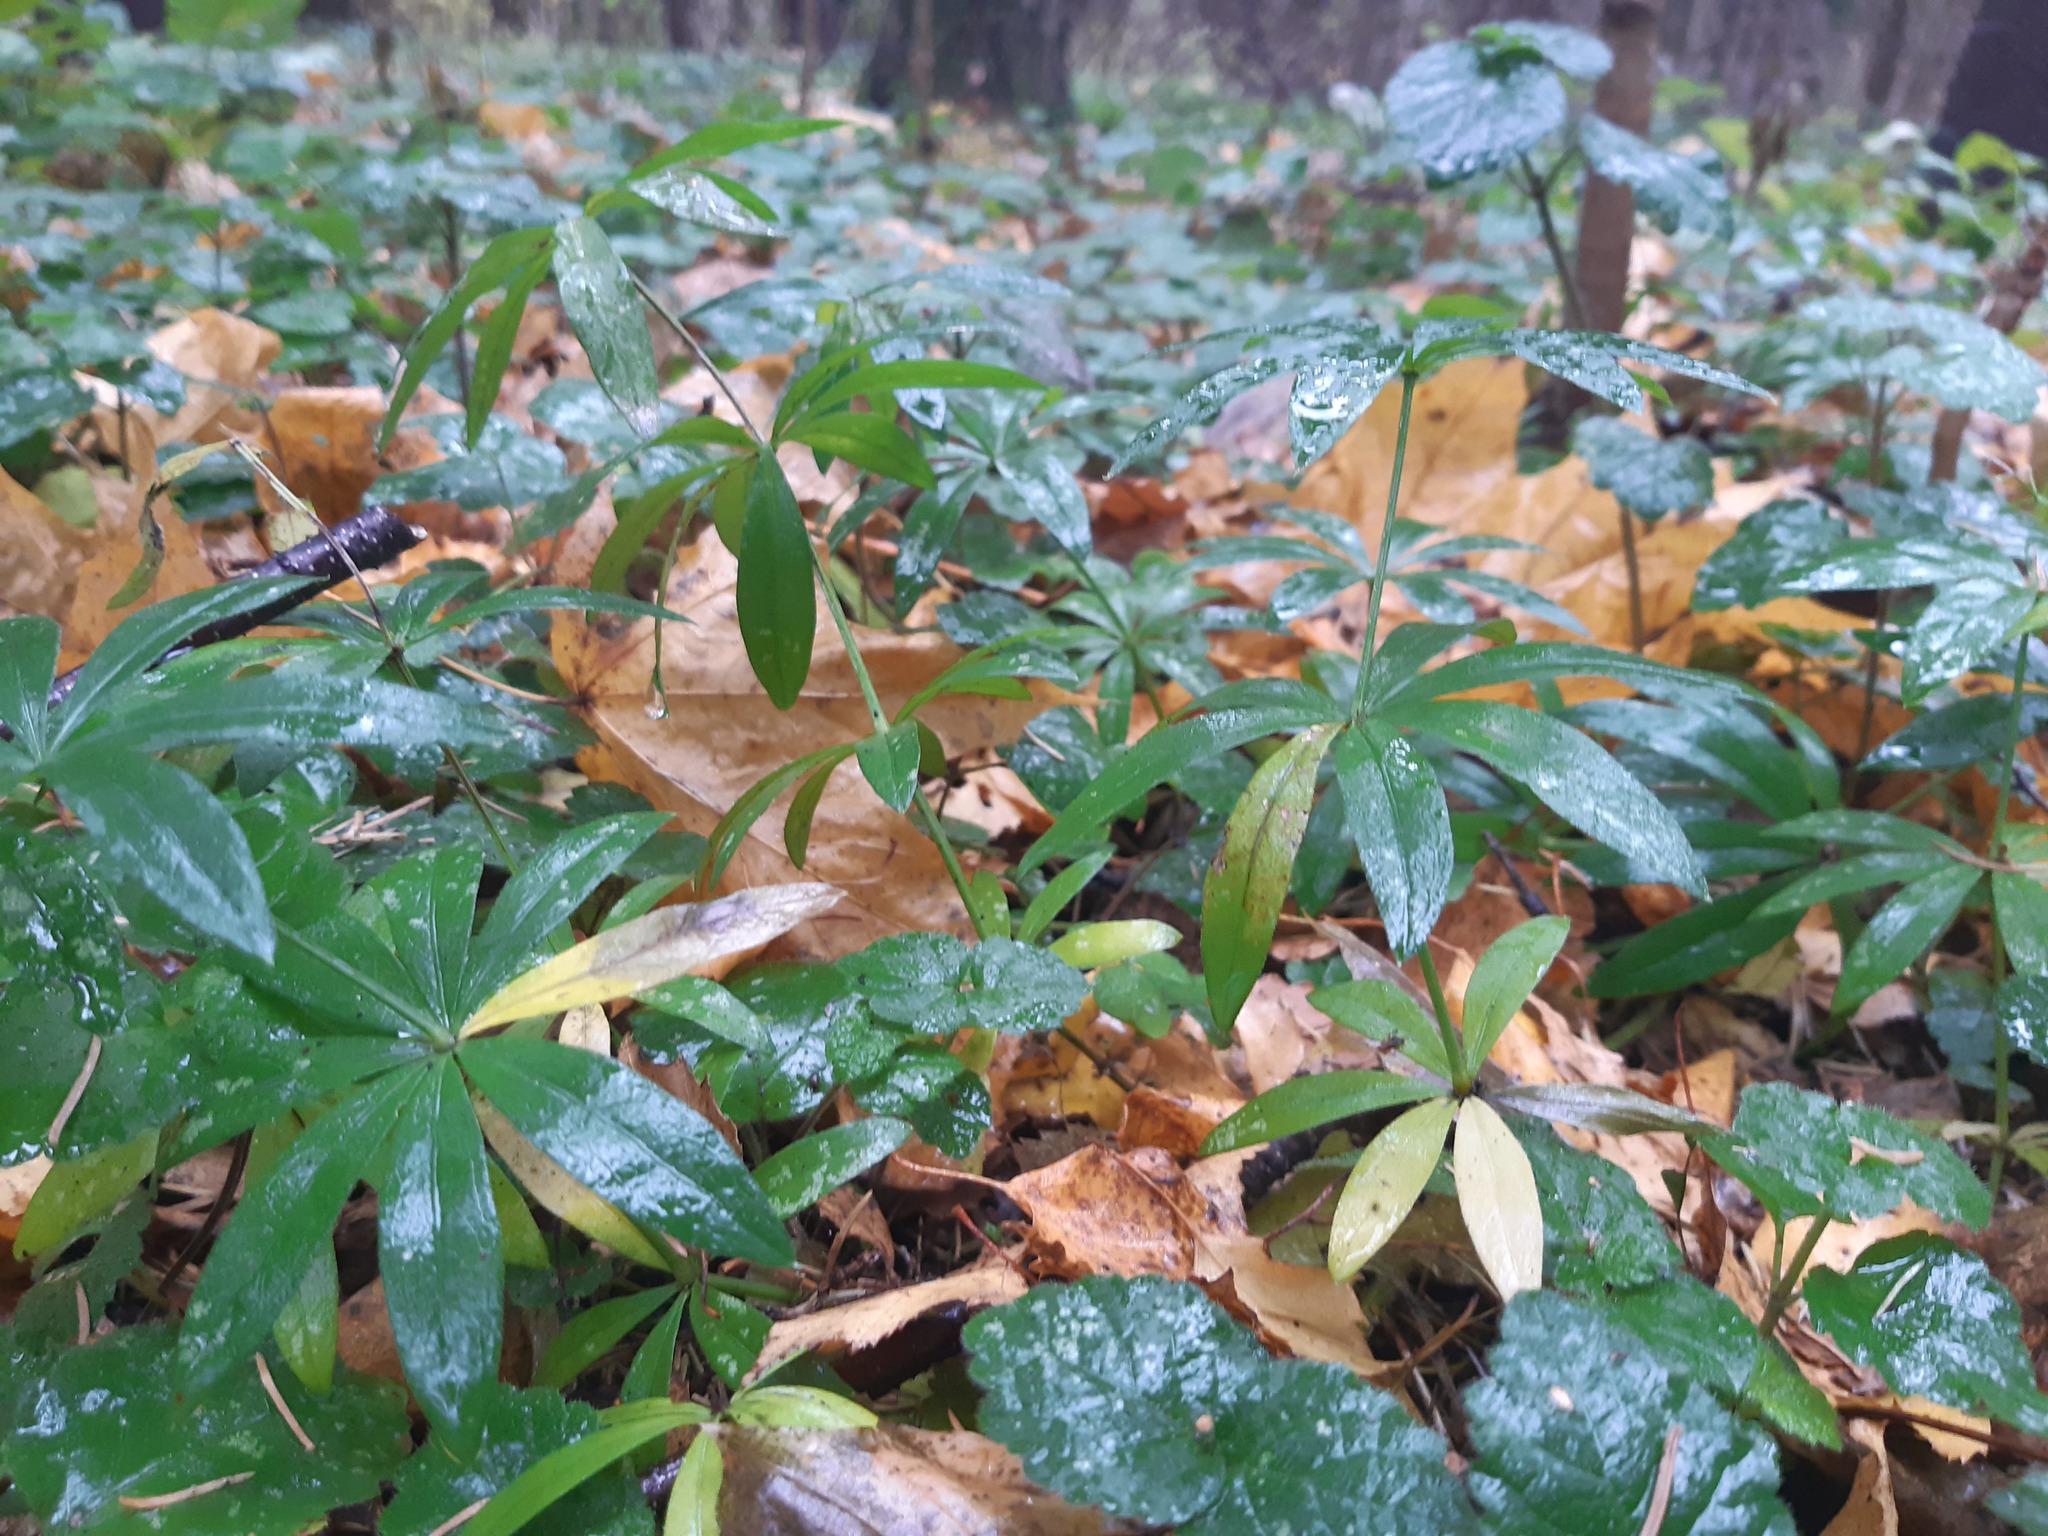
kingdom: Plantae
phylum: Tracheophyta
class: Magnoliopsida
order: Gentianales
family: Rubiaceae
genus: Galium
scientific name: Galium odoratum
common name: Sweet woodruff
